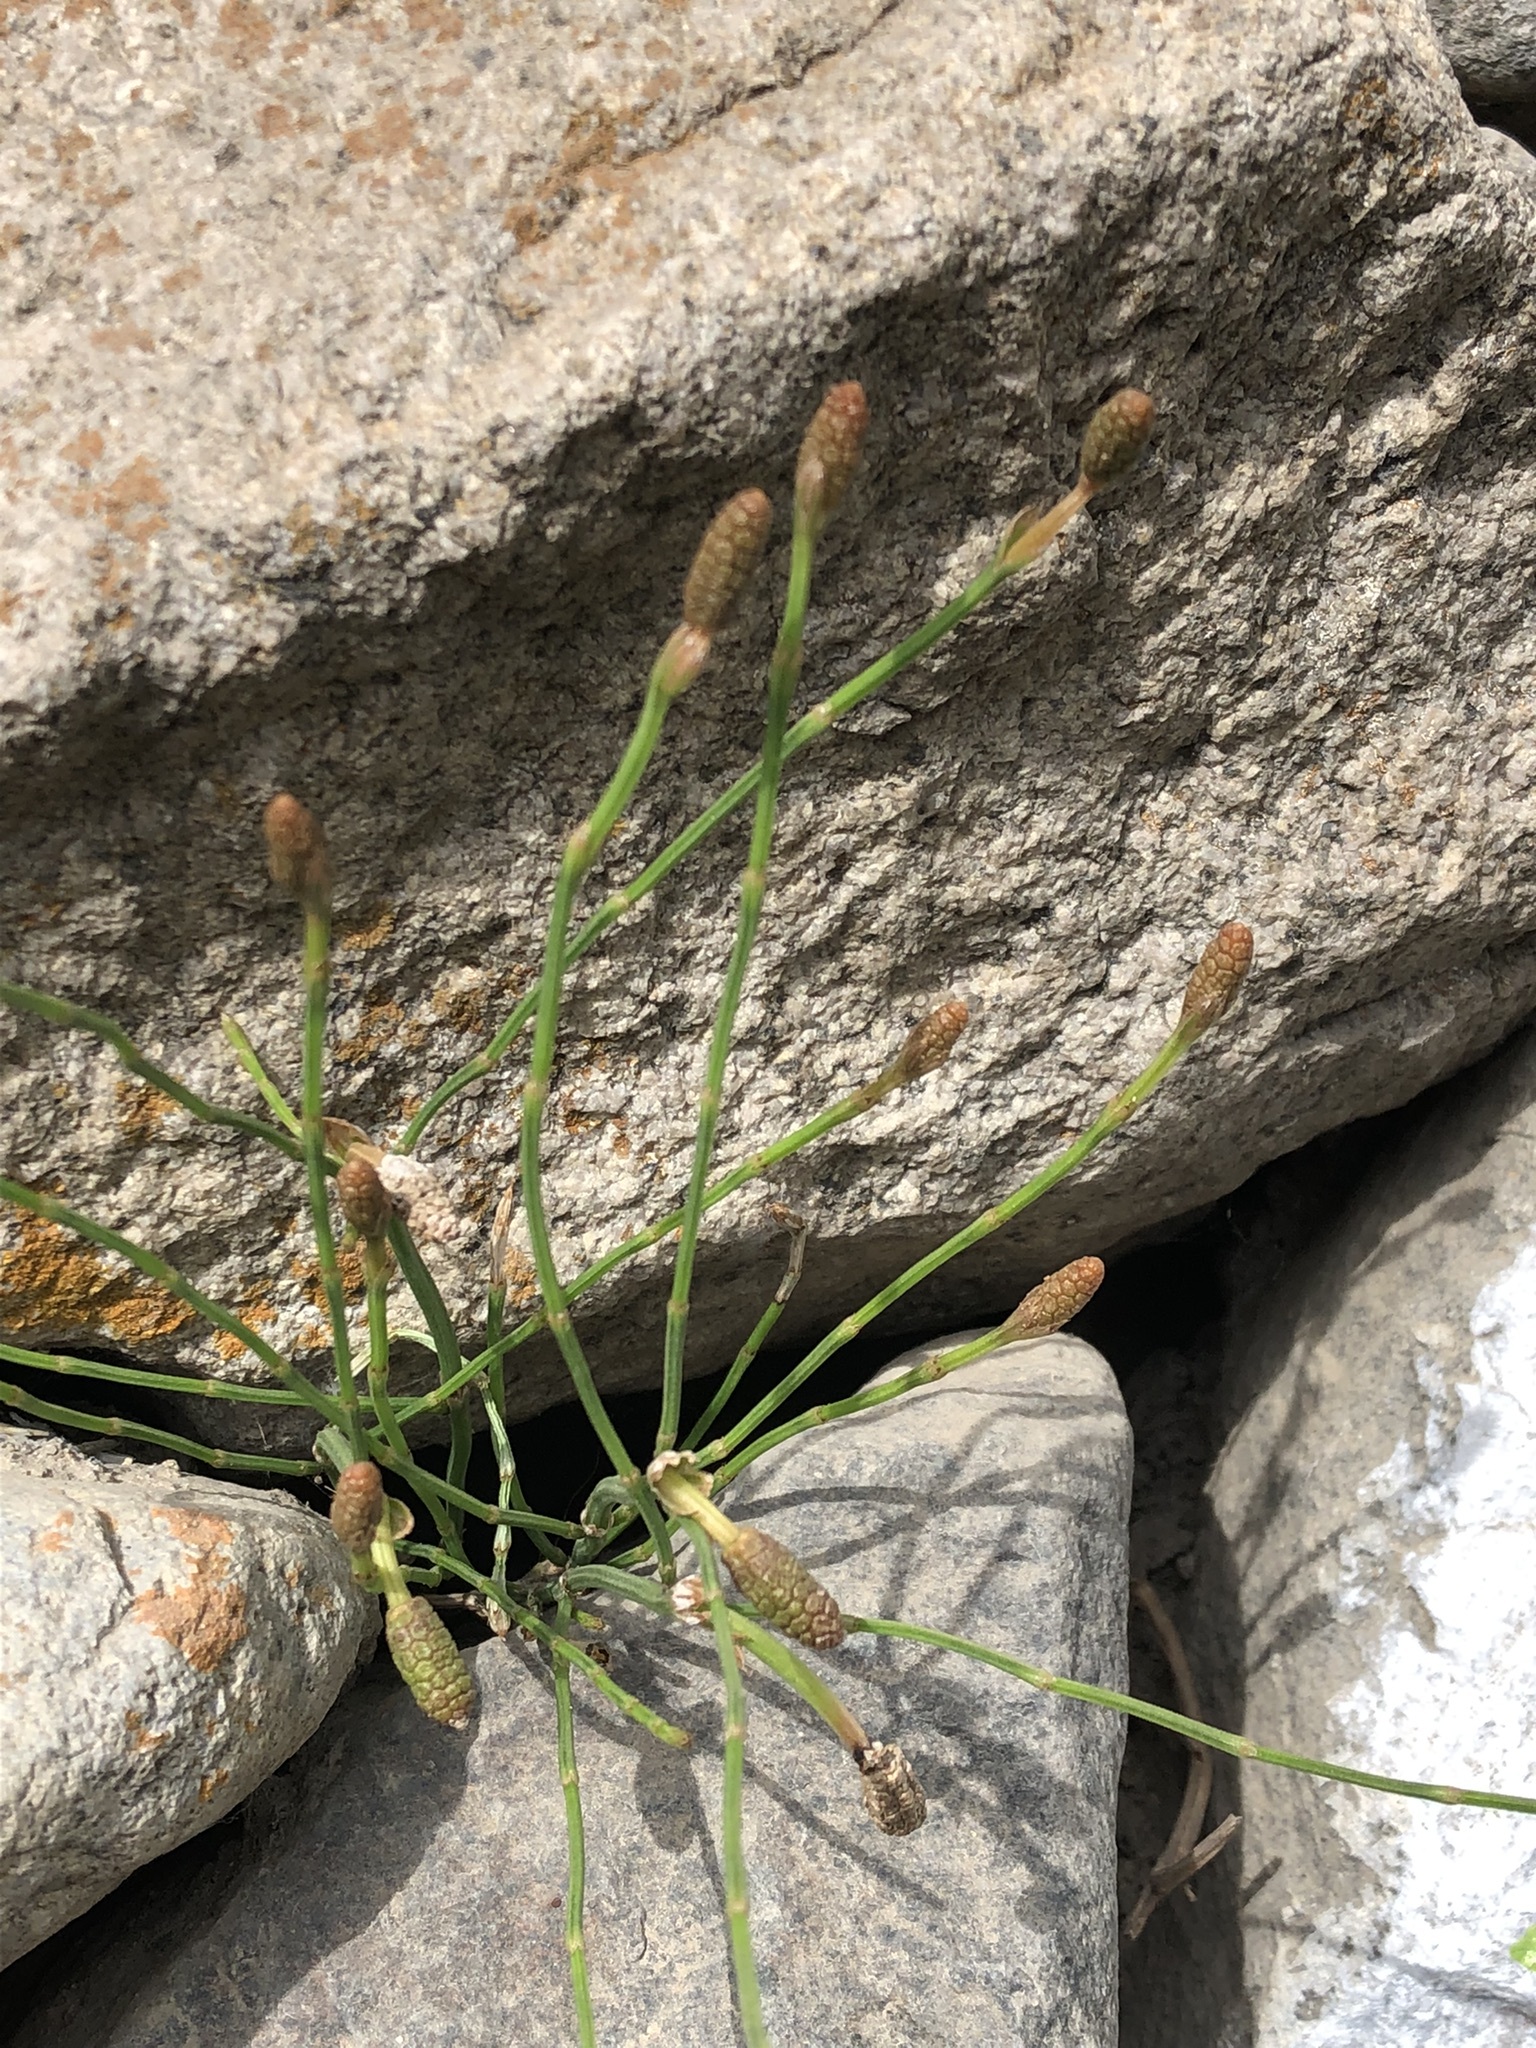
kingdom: Plantae
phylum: Tracheophyta
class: Polypodiopsida
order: Equisetales
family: Equisetaceae
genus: Equisetum
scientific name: Equisetum bogotense
